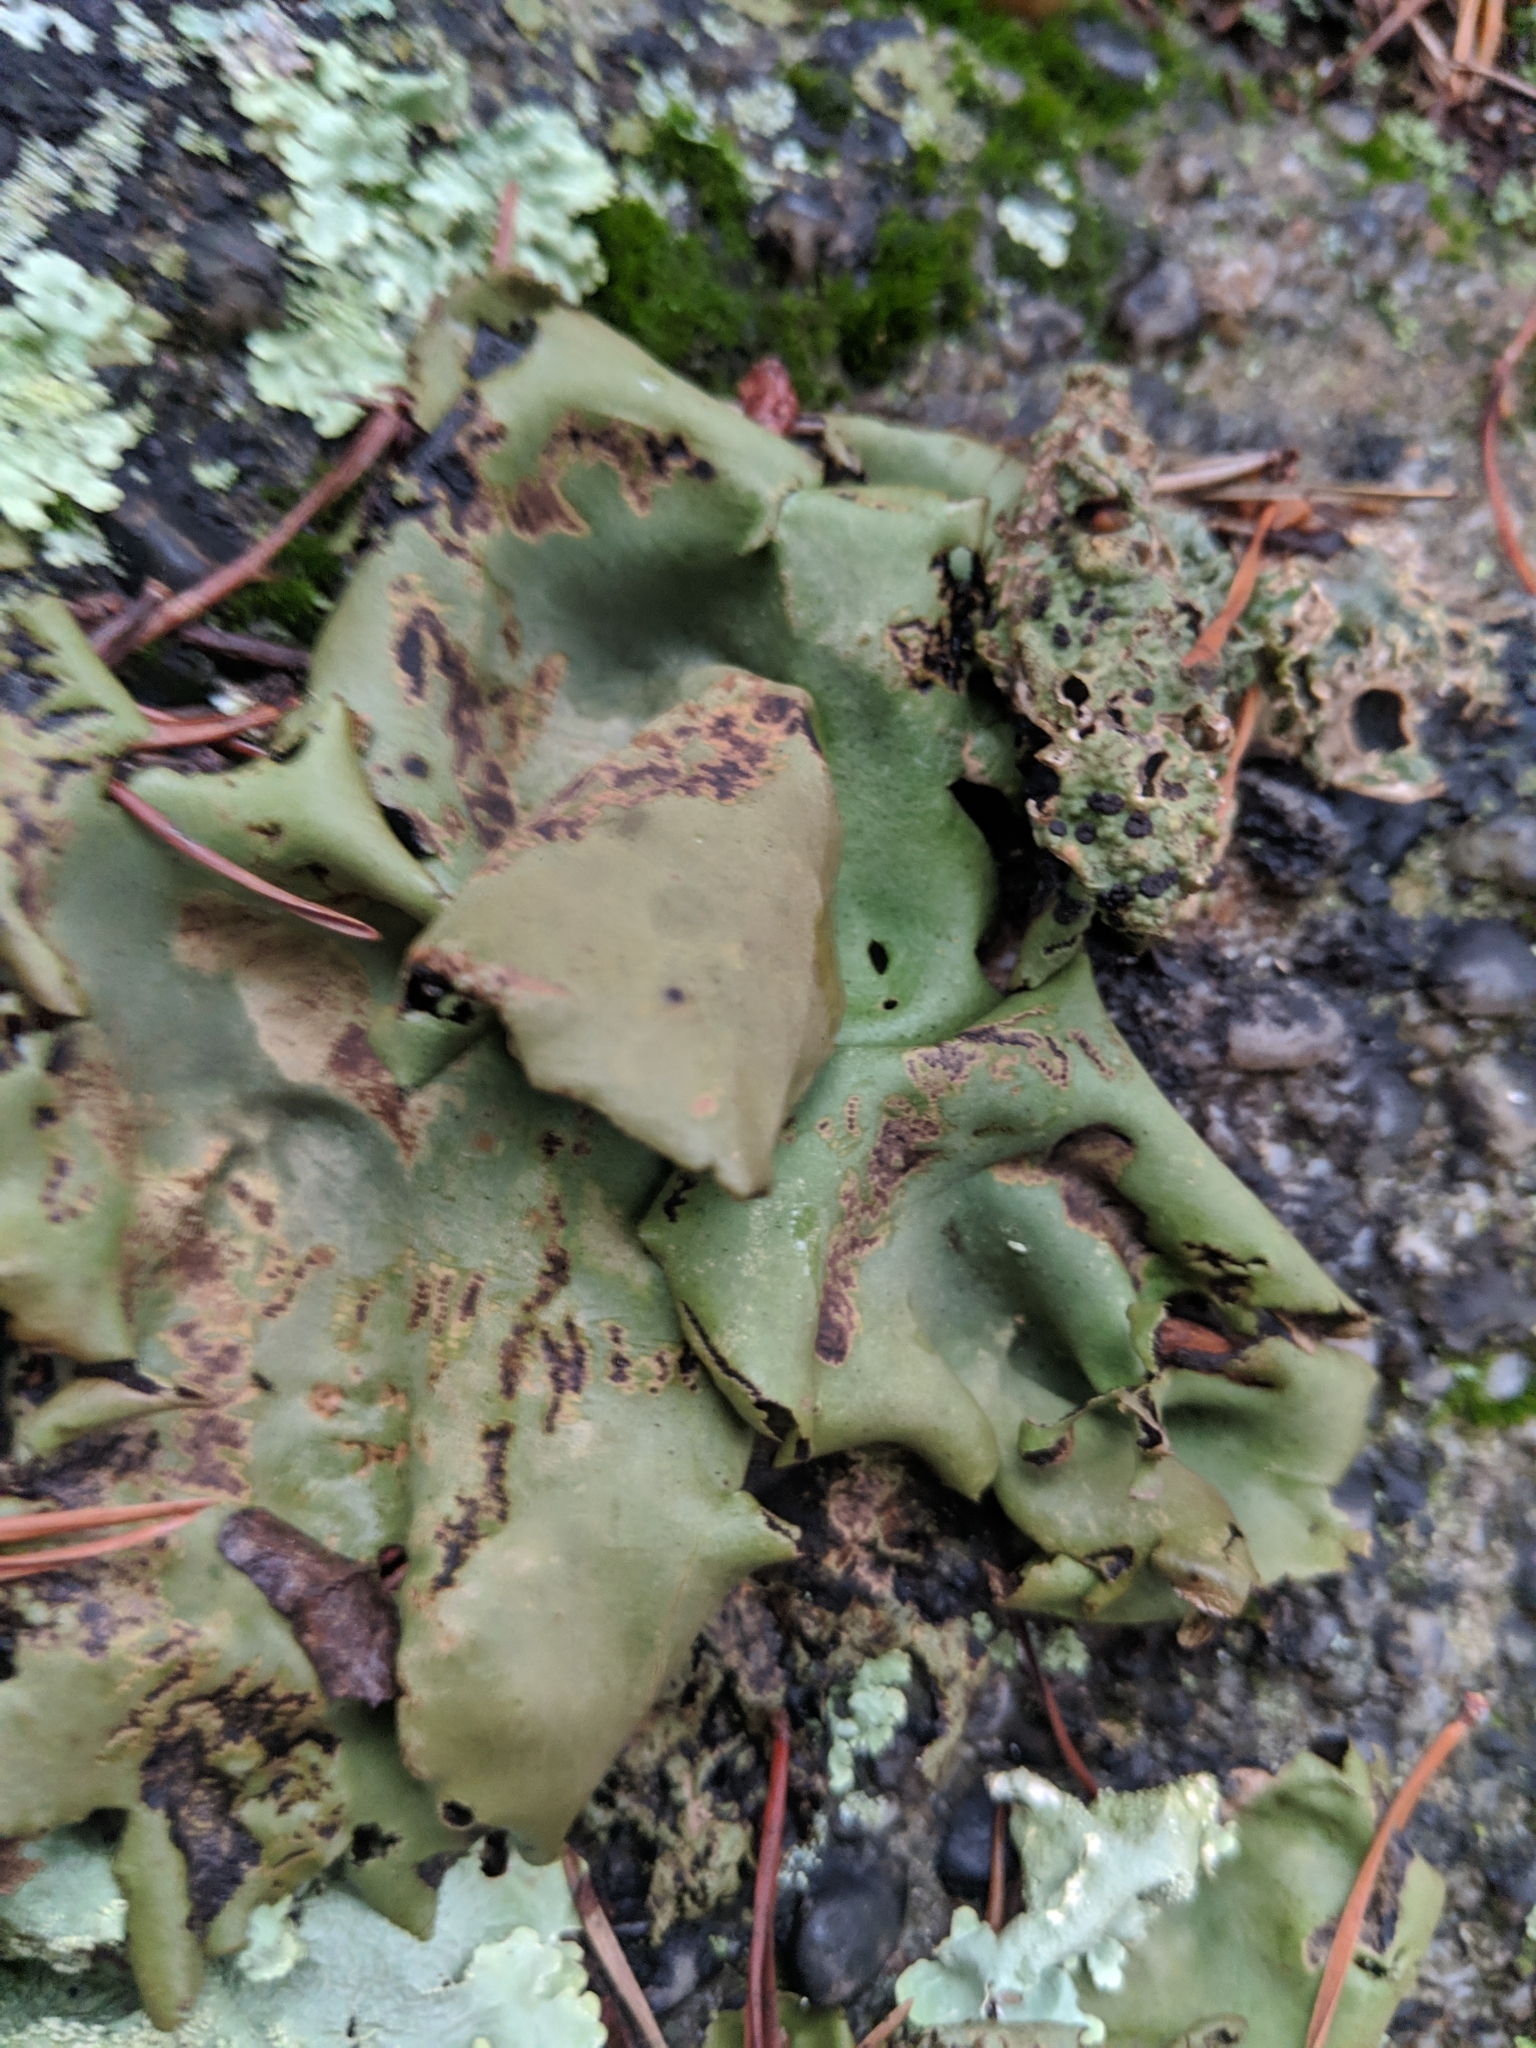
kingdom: Fungi
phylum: Ascomycota
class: Lecanoromycetes
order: Umbilicariales
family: Umbilicariaceae
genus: Umbilicaria
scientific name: Umbilicaria mammulata
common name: Smooth rock tripe
